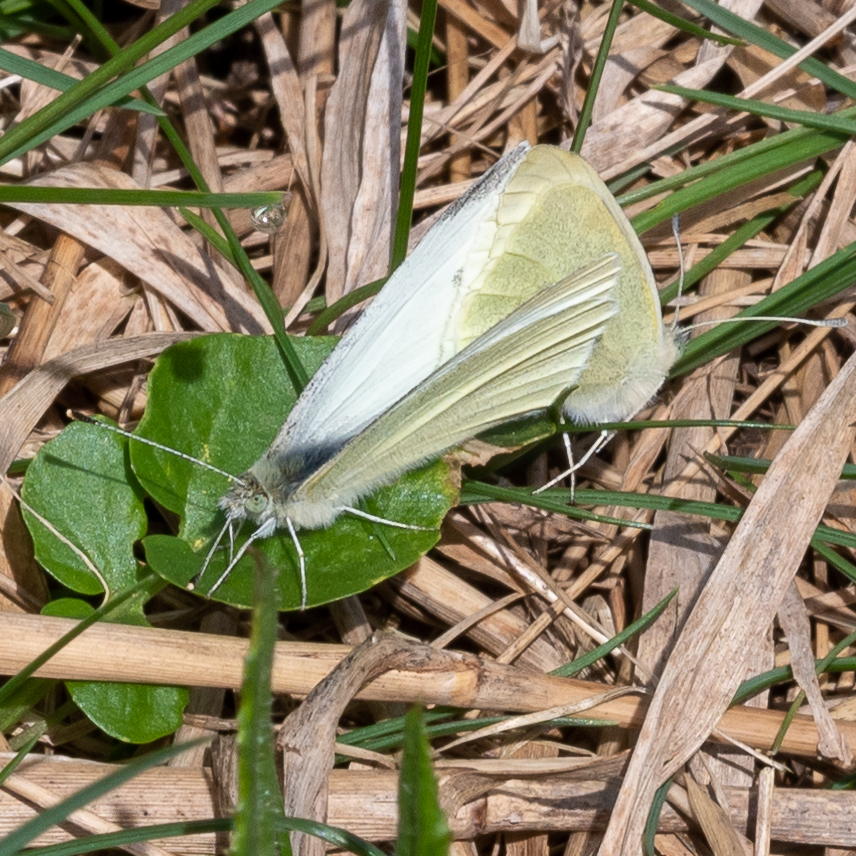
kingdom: Animalia
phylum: Arthropoda
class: Insecta
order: Lepidoptera
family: Pieridae
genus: Pieris
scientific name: Pieris rapae
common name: Small white
